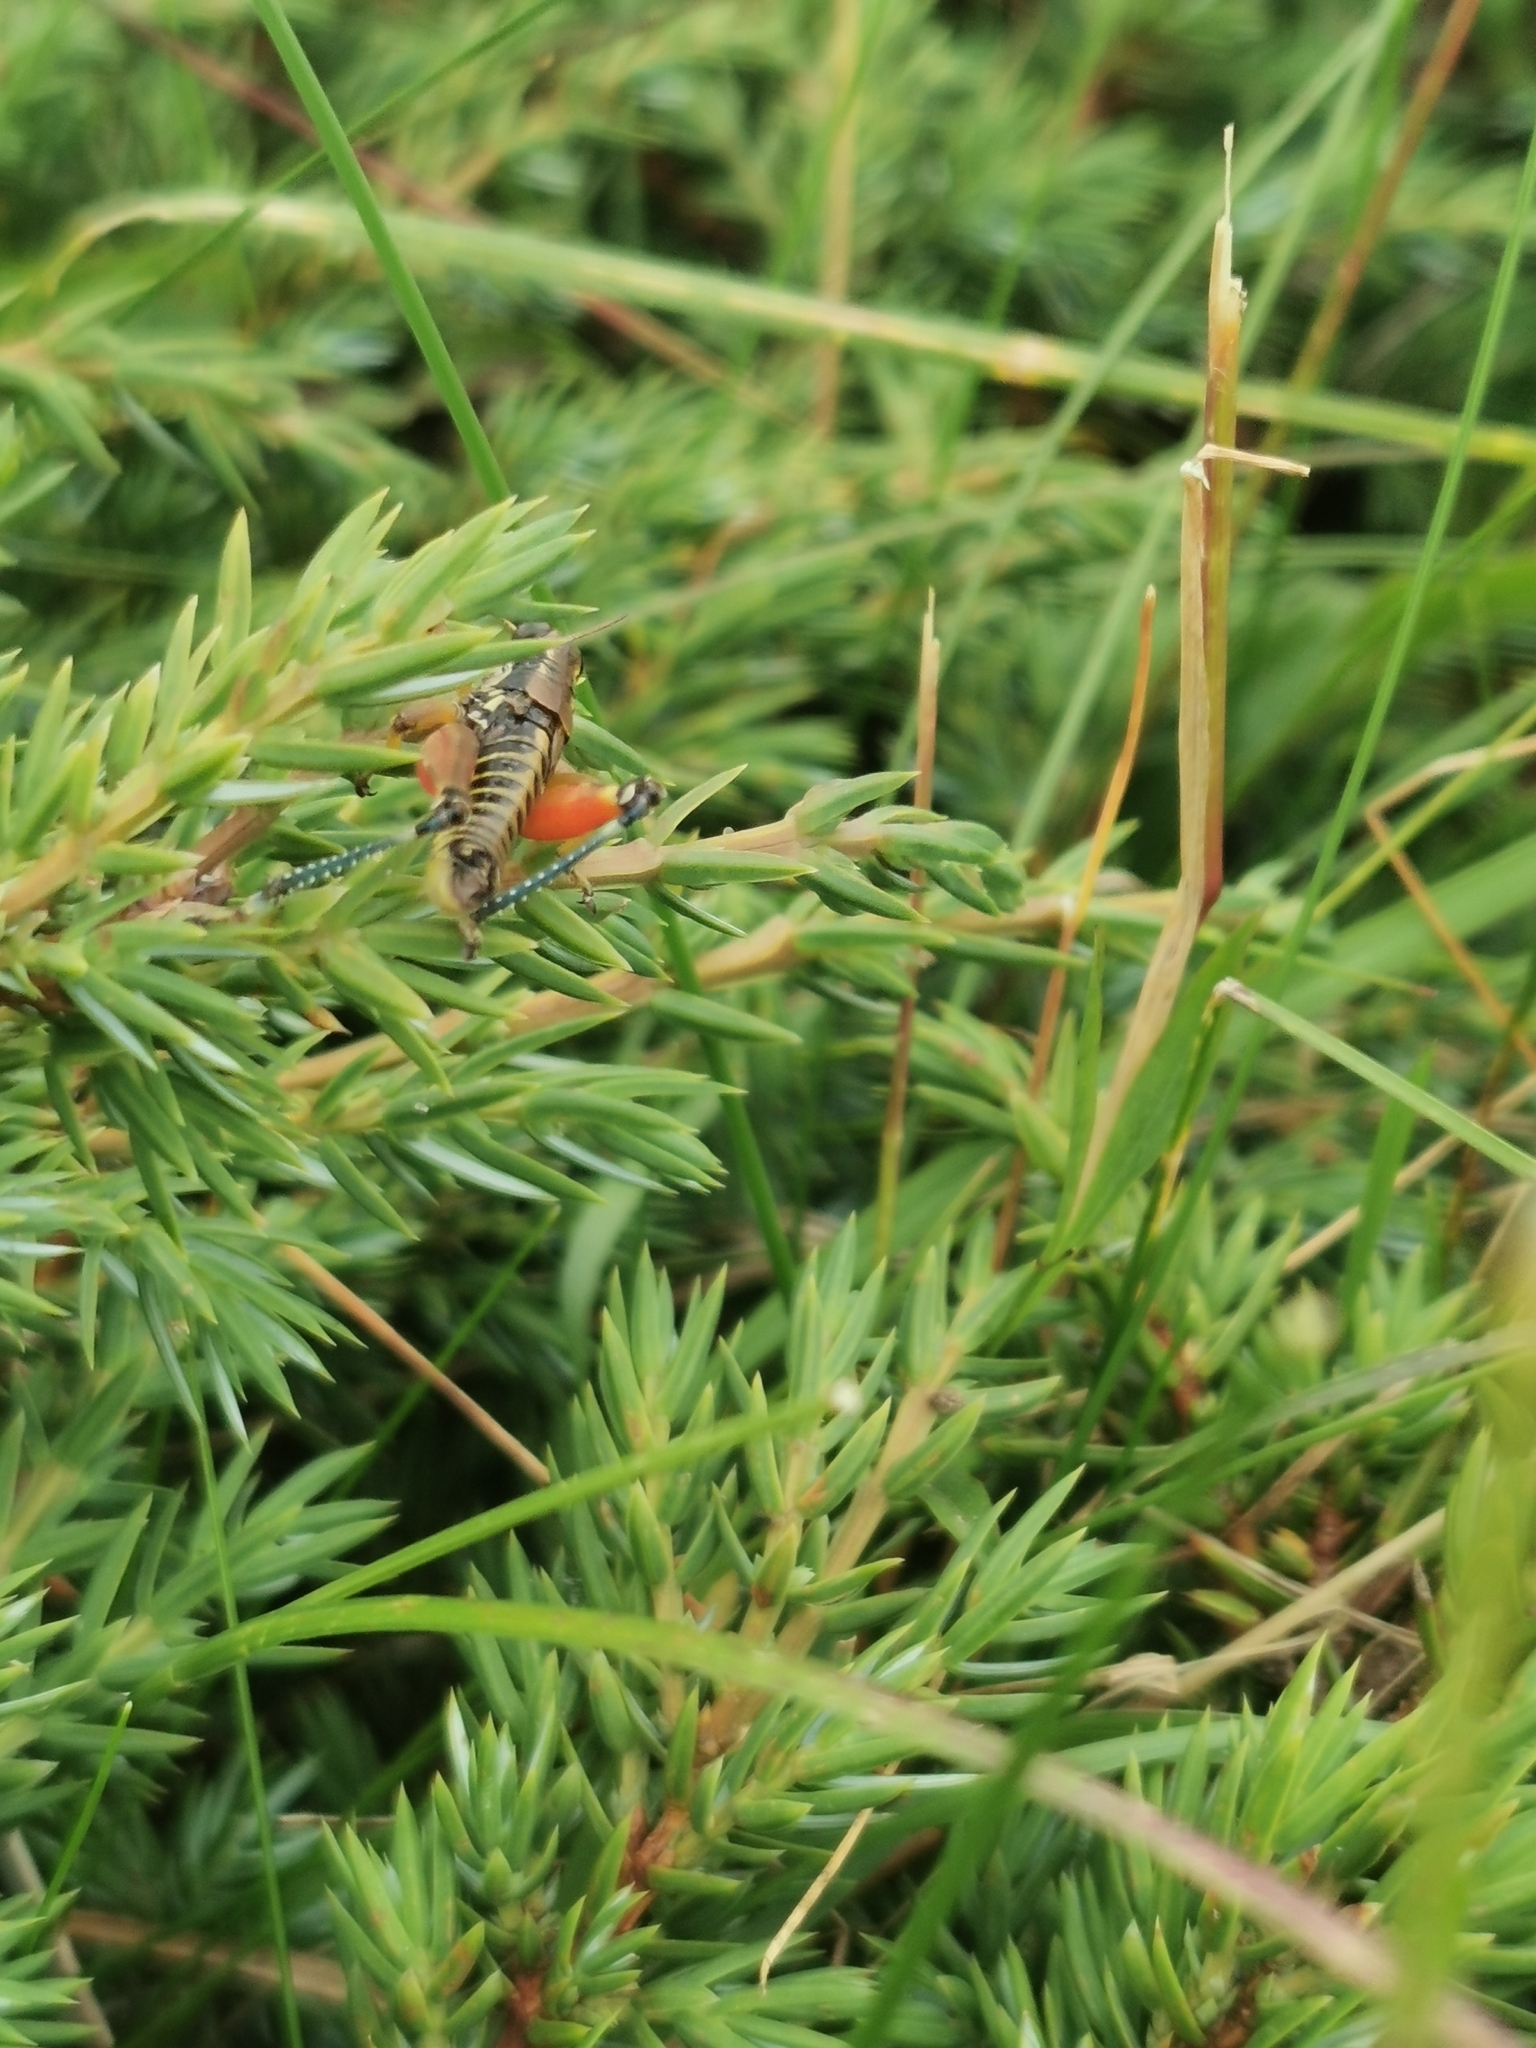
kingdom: Animalia
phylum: Arthropoda
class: Insecta
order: Orthoptera
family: Acrididae
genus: Podisma
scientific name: Podisma pedestris
